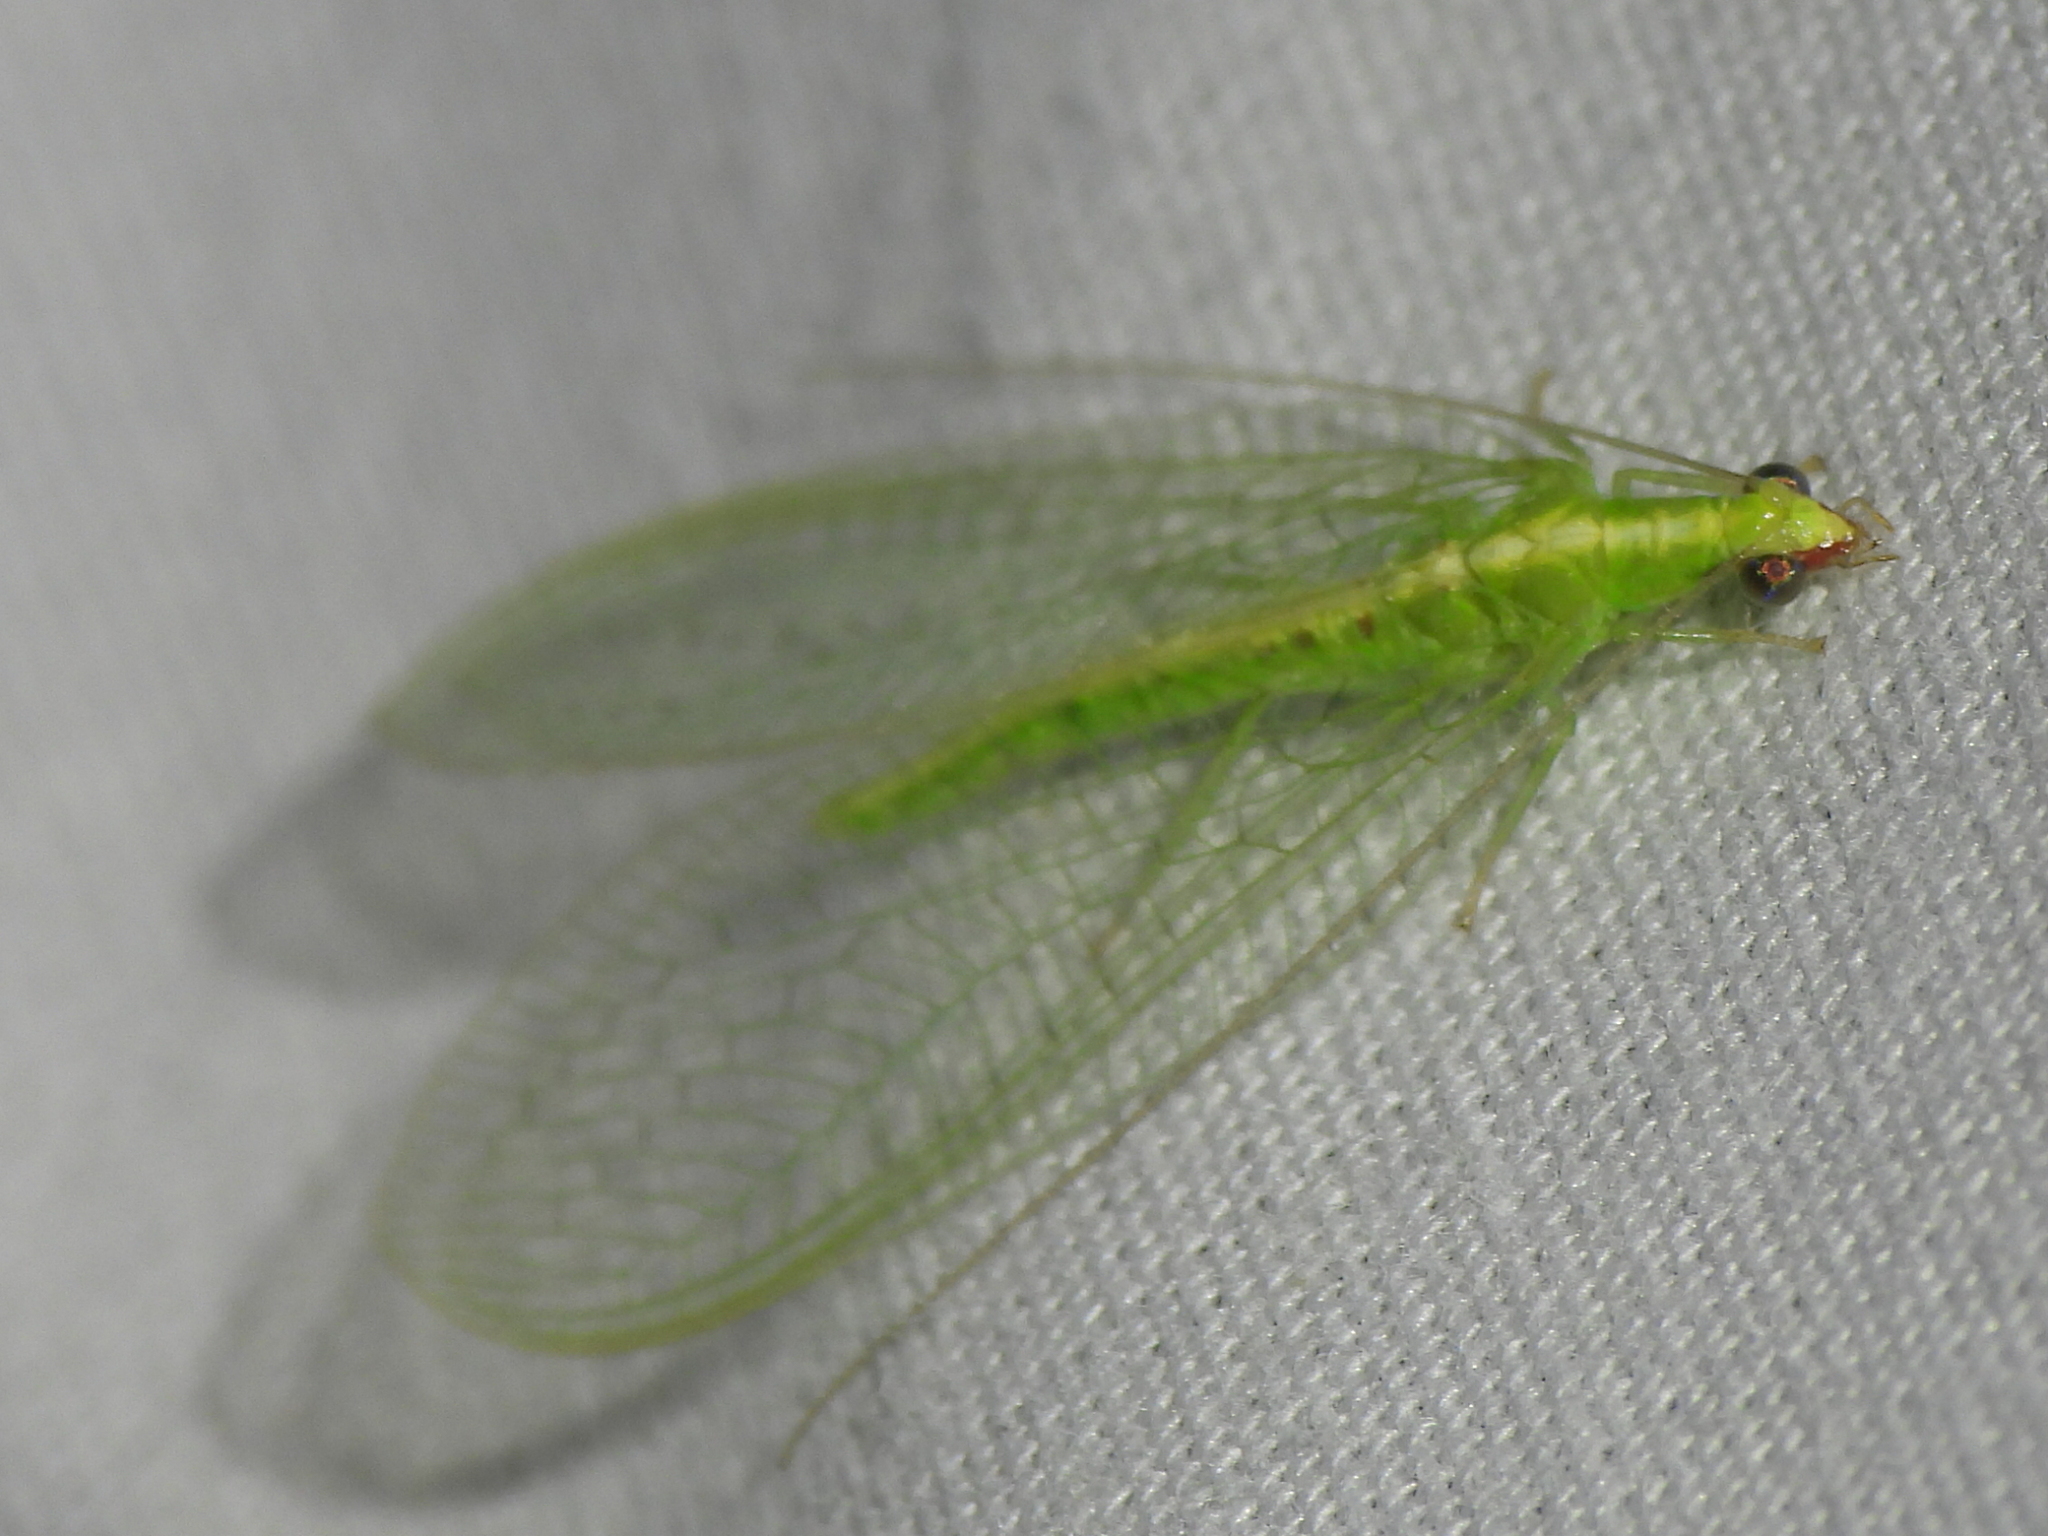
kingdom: Animalia
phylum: Arthropoda
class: Insecta
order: Neuroptera
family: Chrysopidae
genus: Chrysoperla
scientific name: Chrysoperla rufilabris
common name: Red-lipped green lacewing
